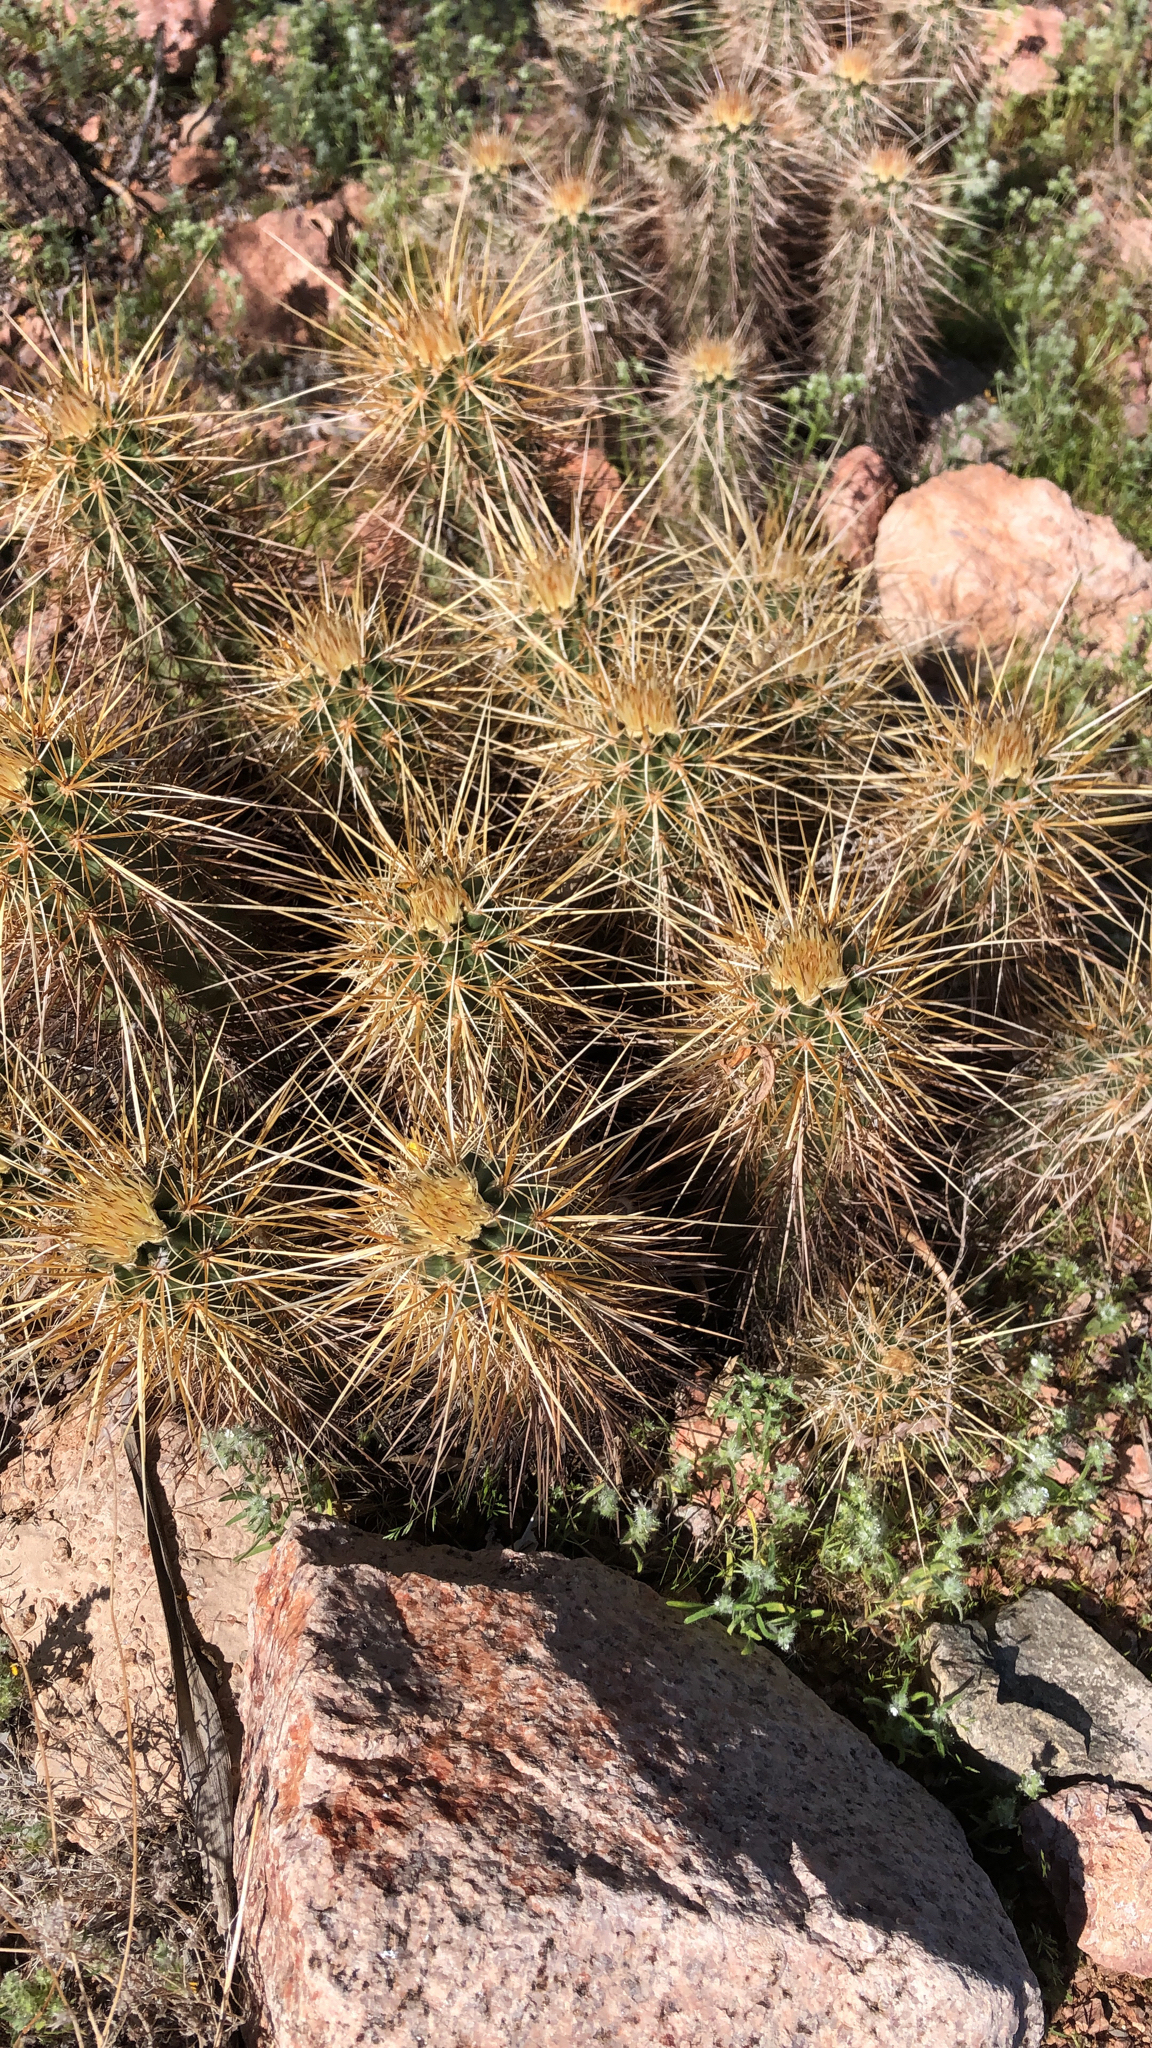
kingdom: Plantae
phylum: Tracheophyta
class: Magnoliopsida
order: Caryophyllales
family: Cactaceae
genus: Echinocereus
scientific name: Echinocereus engelmannii
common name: Engelmann's hedgehog cactus
